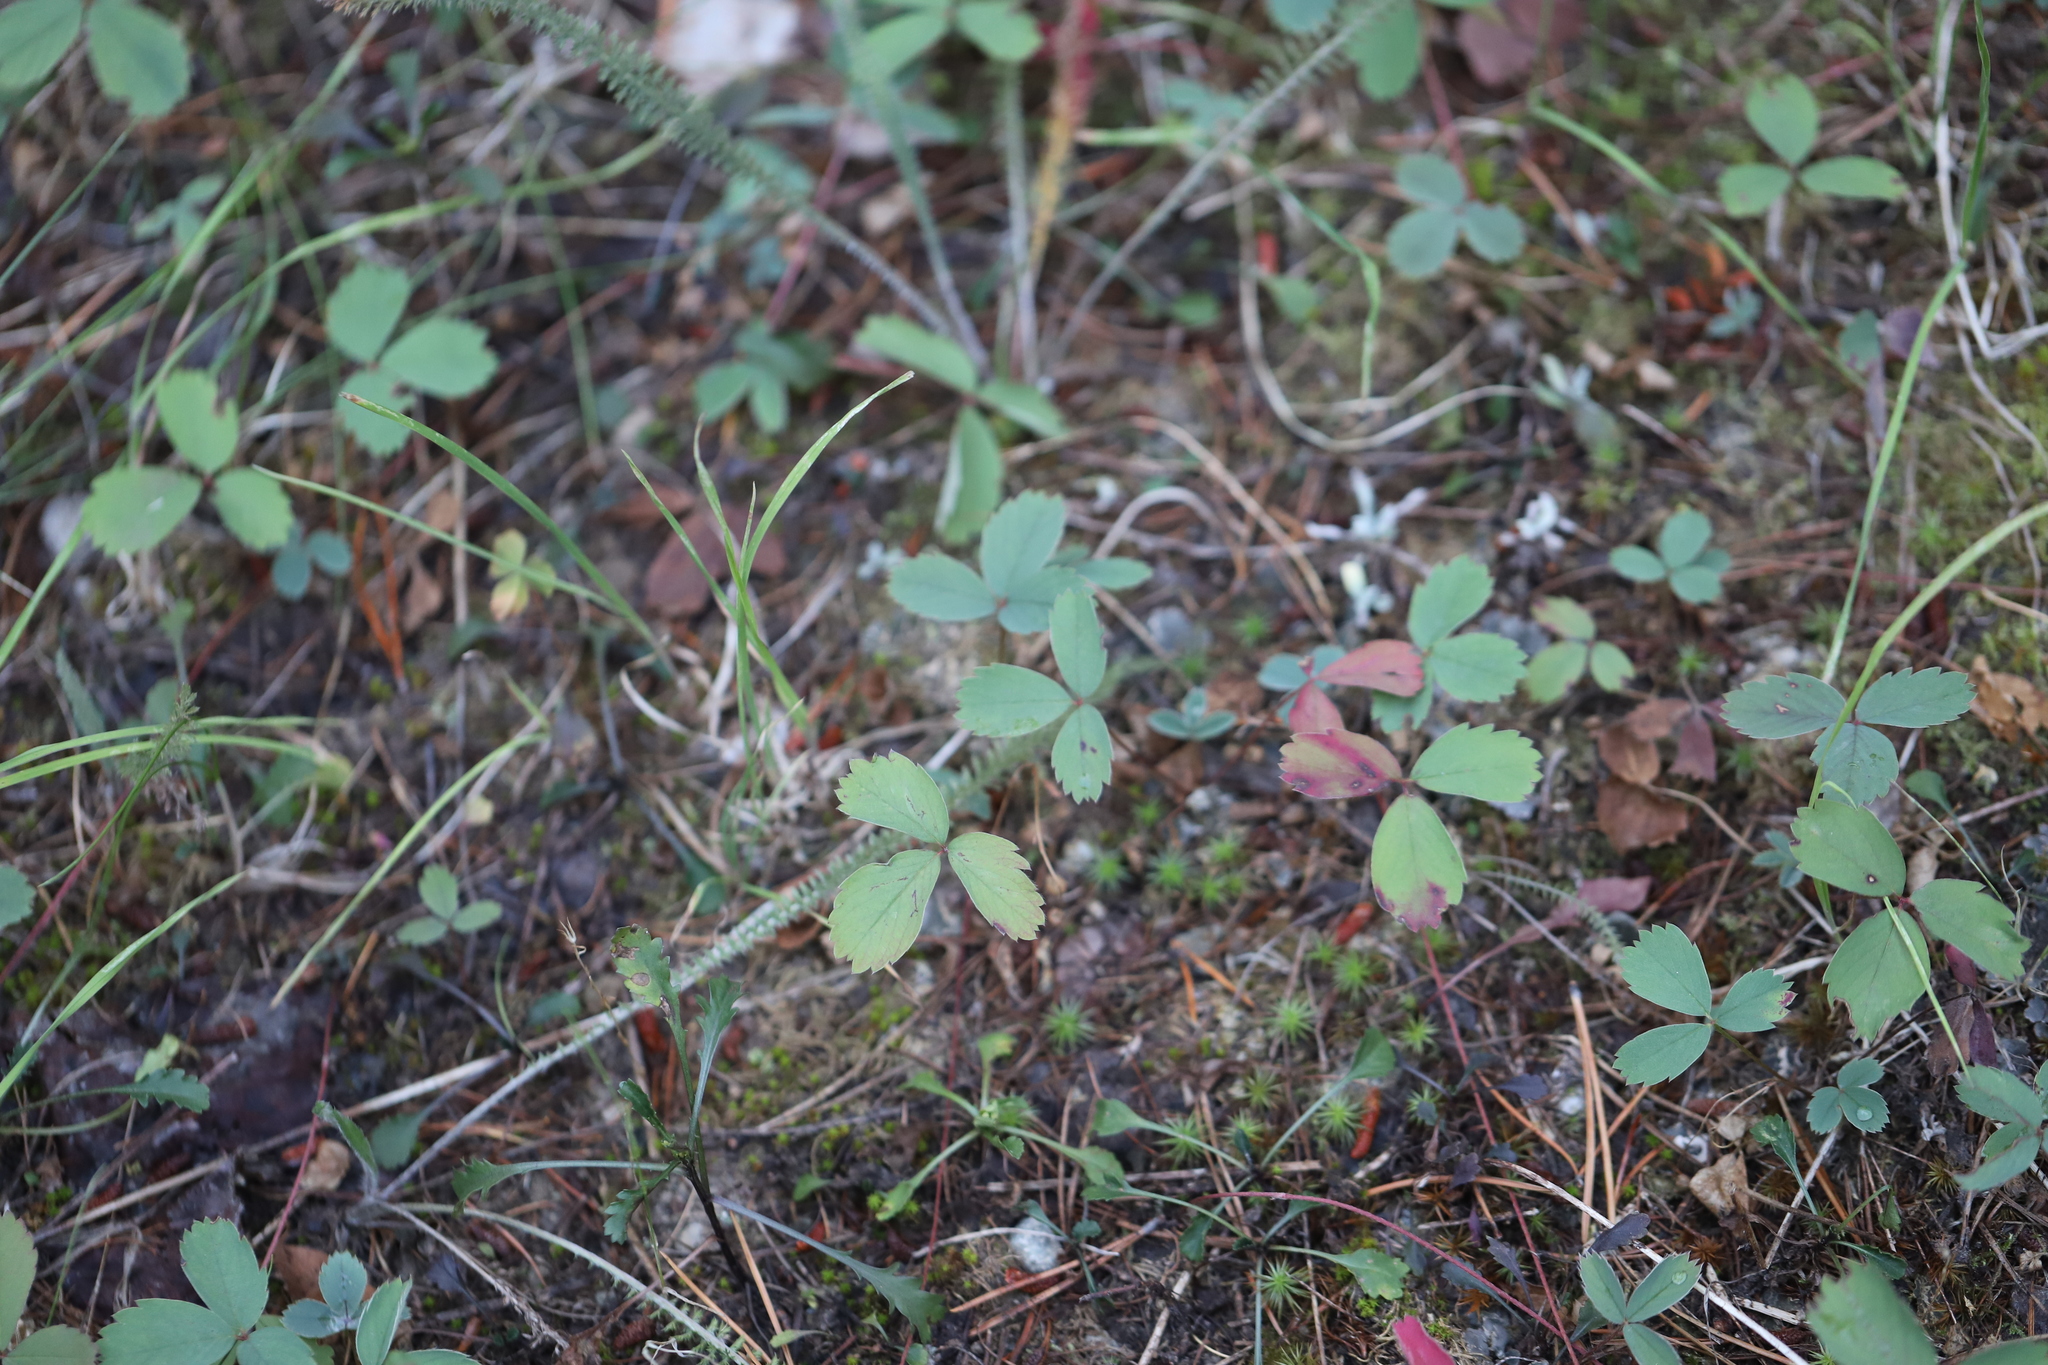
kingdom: Plantae
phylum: Tracheophyta
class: Magnoliopsida
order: Rosales
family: Rosaceae
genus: Fragaria
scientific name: Fragaria virginiana
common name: Thickleaved wild strawberry
